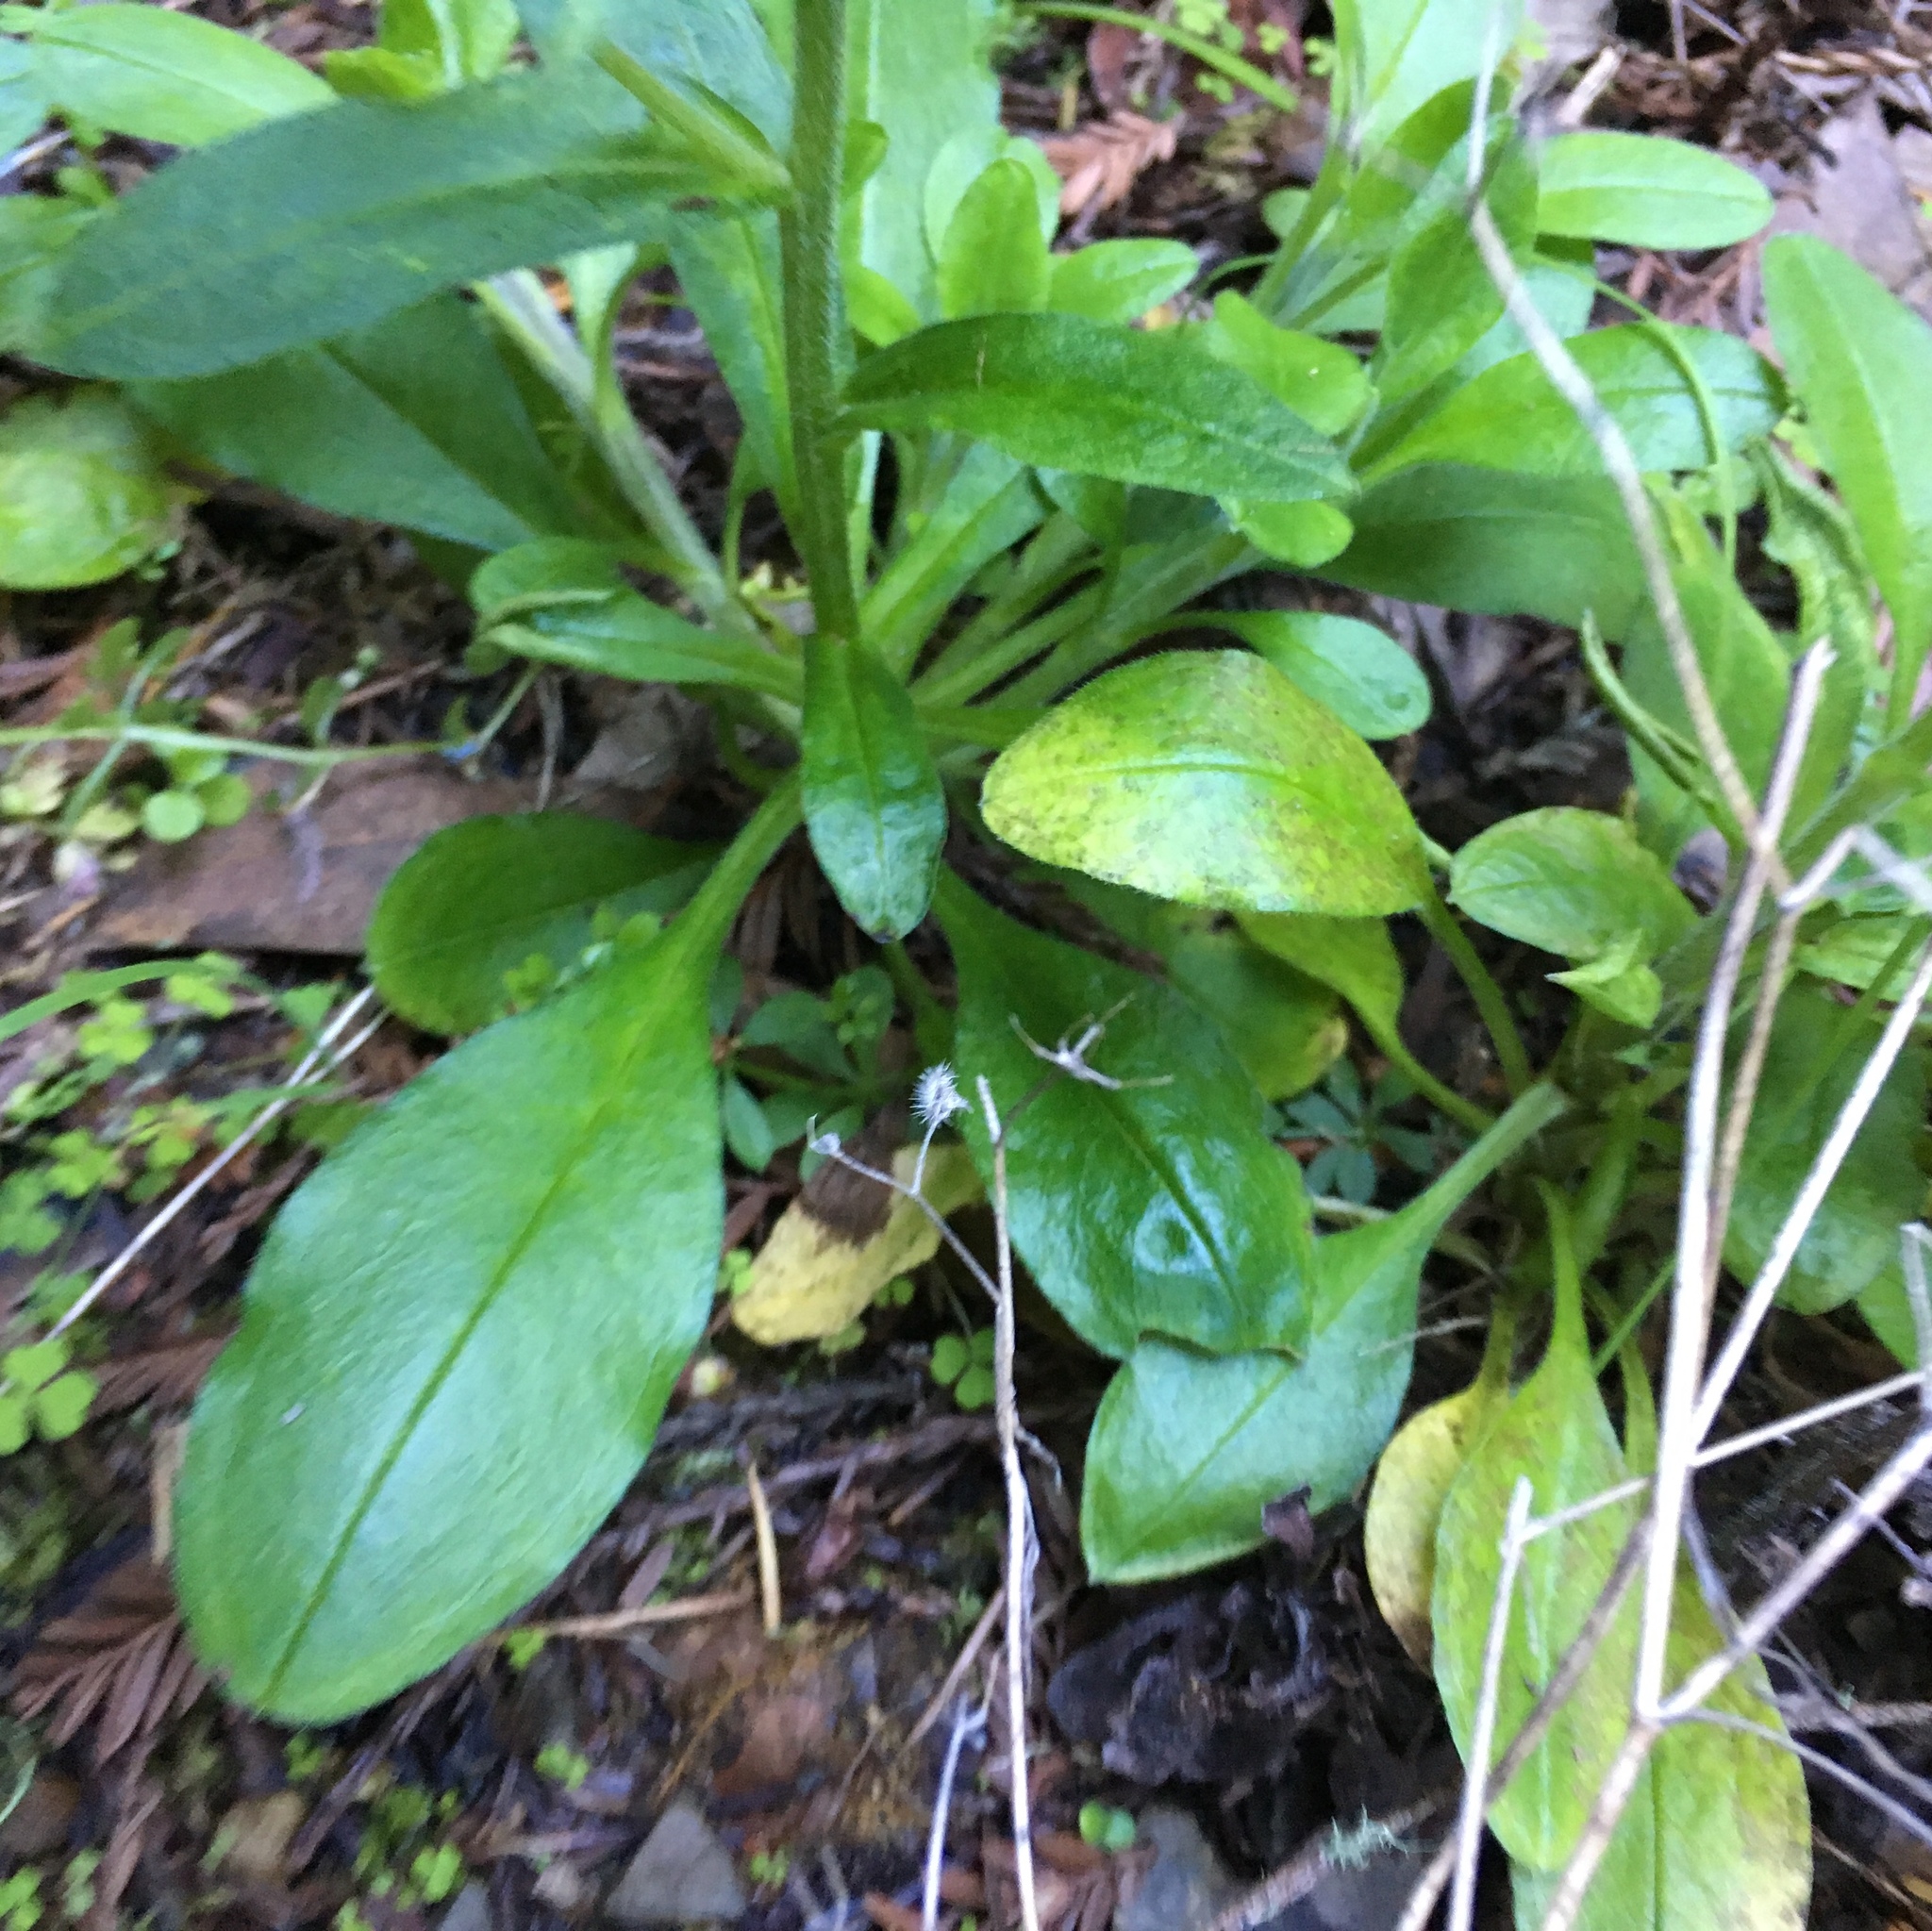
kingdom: Plantae
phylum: Tracheophyta
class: Magnoliopsida
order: Boraginales
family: Boraginaceae
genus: Myosotis
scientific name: Myosotis latifolia
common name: Broadleaf forget-me-not
